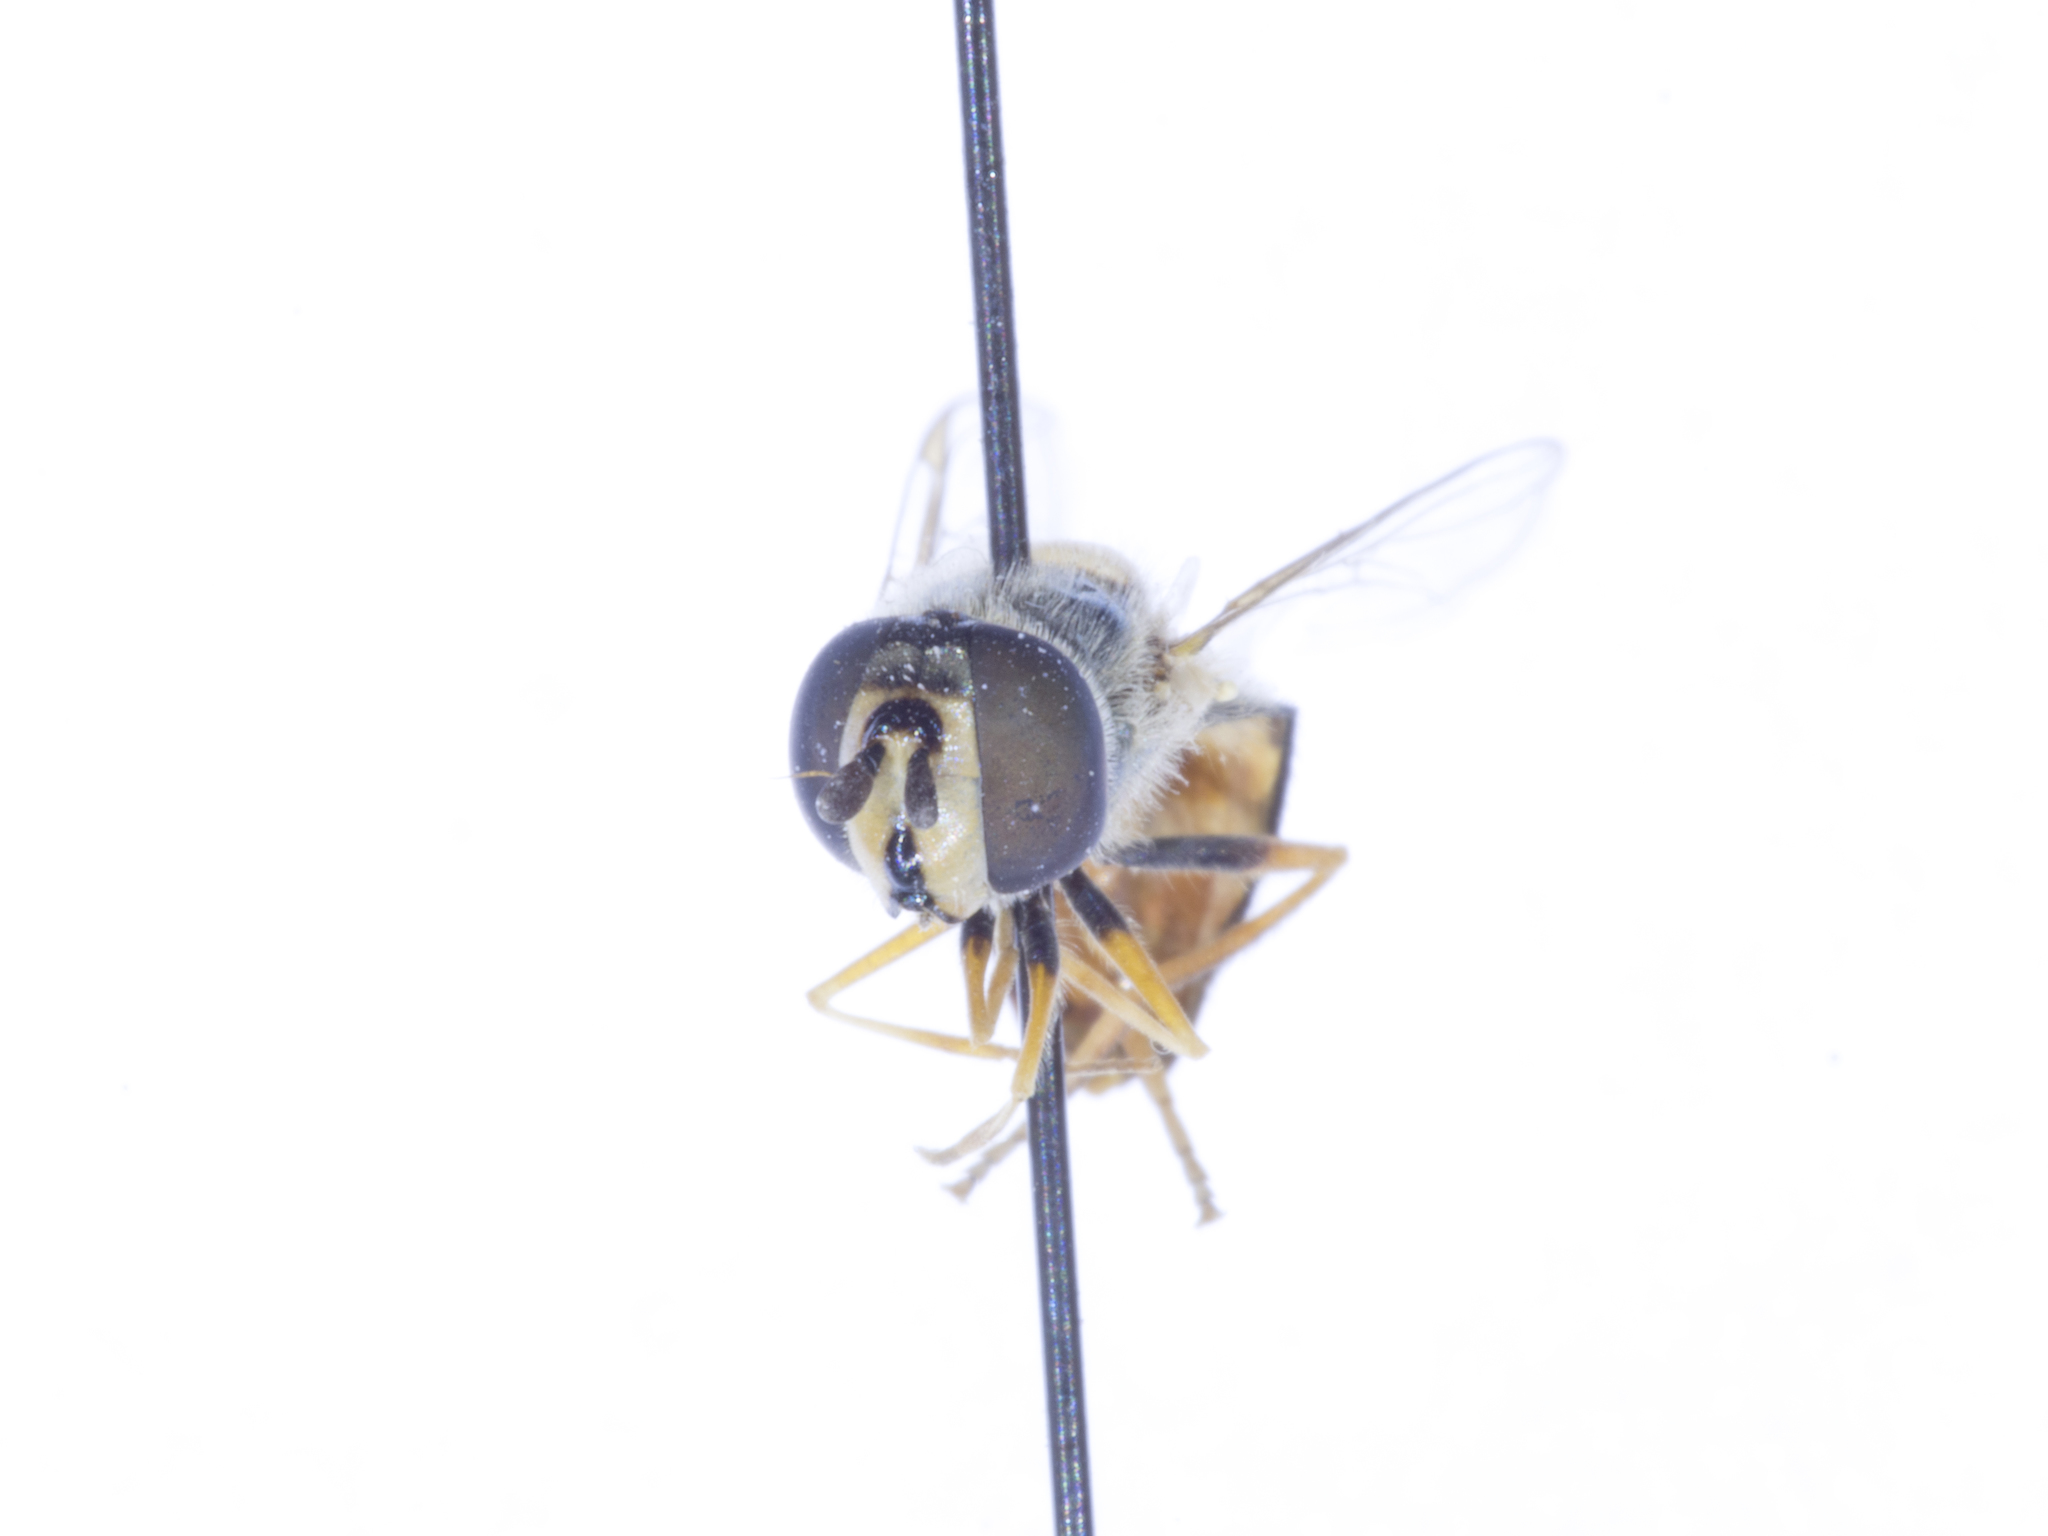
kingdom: Animalia
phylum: Arthropoda
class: Insecta
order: Diptera
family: Syrphidae
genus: Eupeodes
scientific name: Eupeodes volucris
